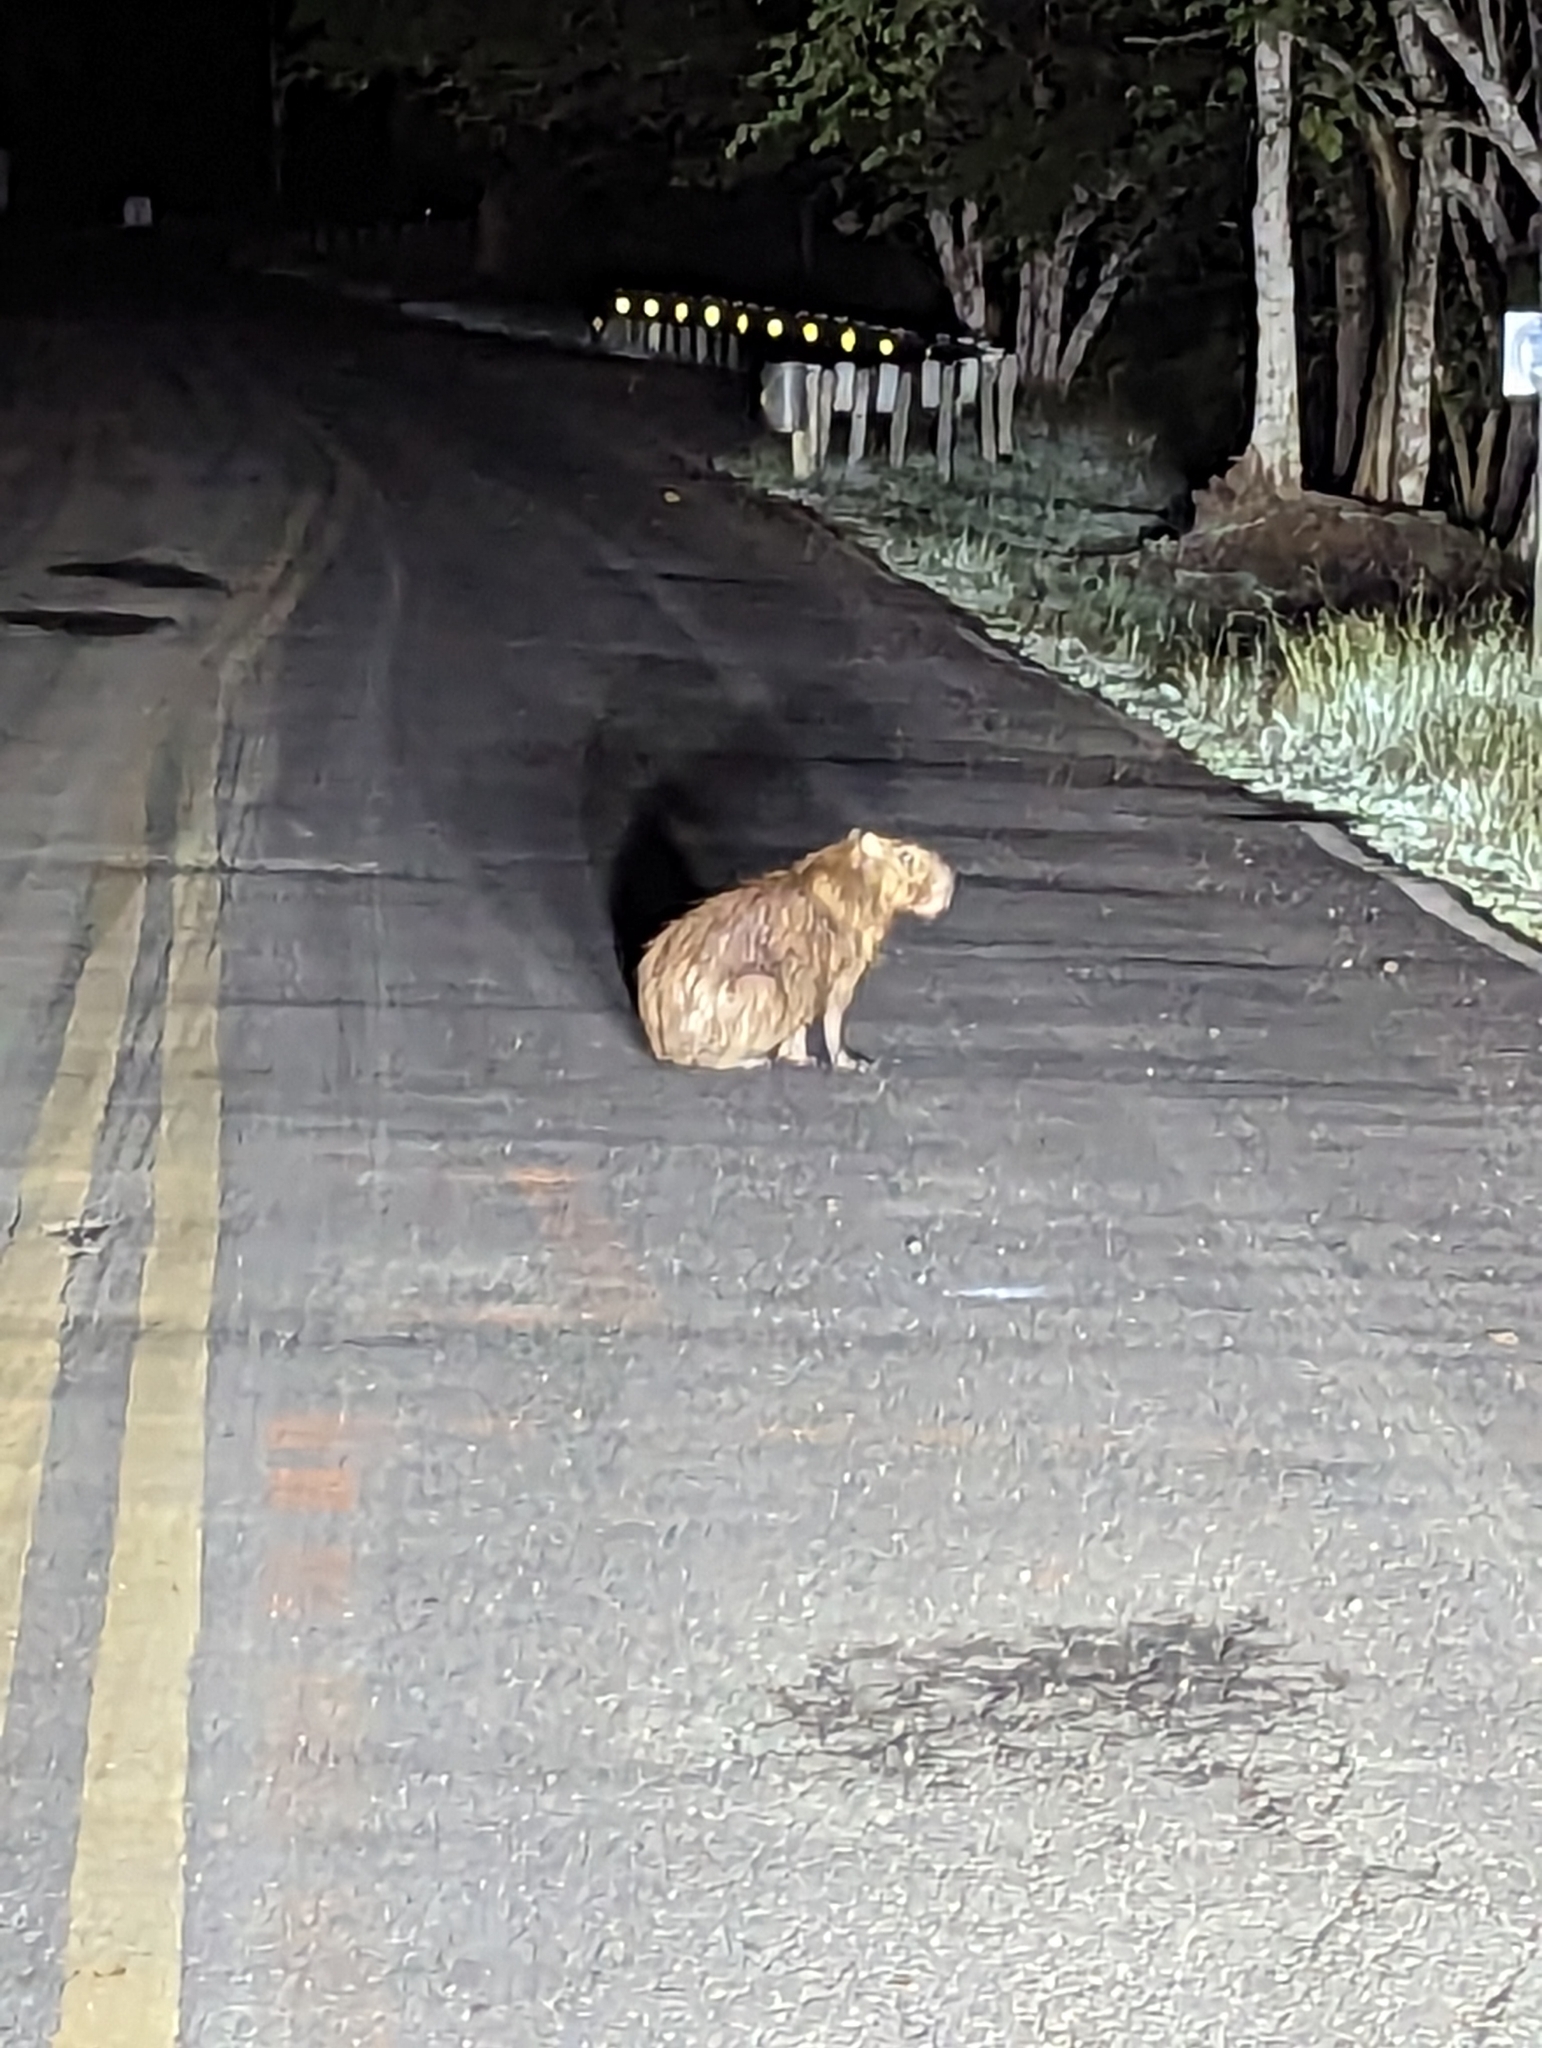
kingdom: Animalia
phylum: Chordata
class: Mammalia
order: Rodentia
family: Caviidae
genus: Hydrochoerus
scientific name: Hydrochoerus isthmius
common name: Lesser capybara
